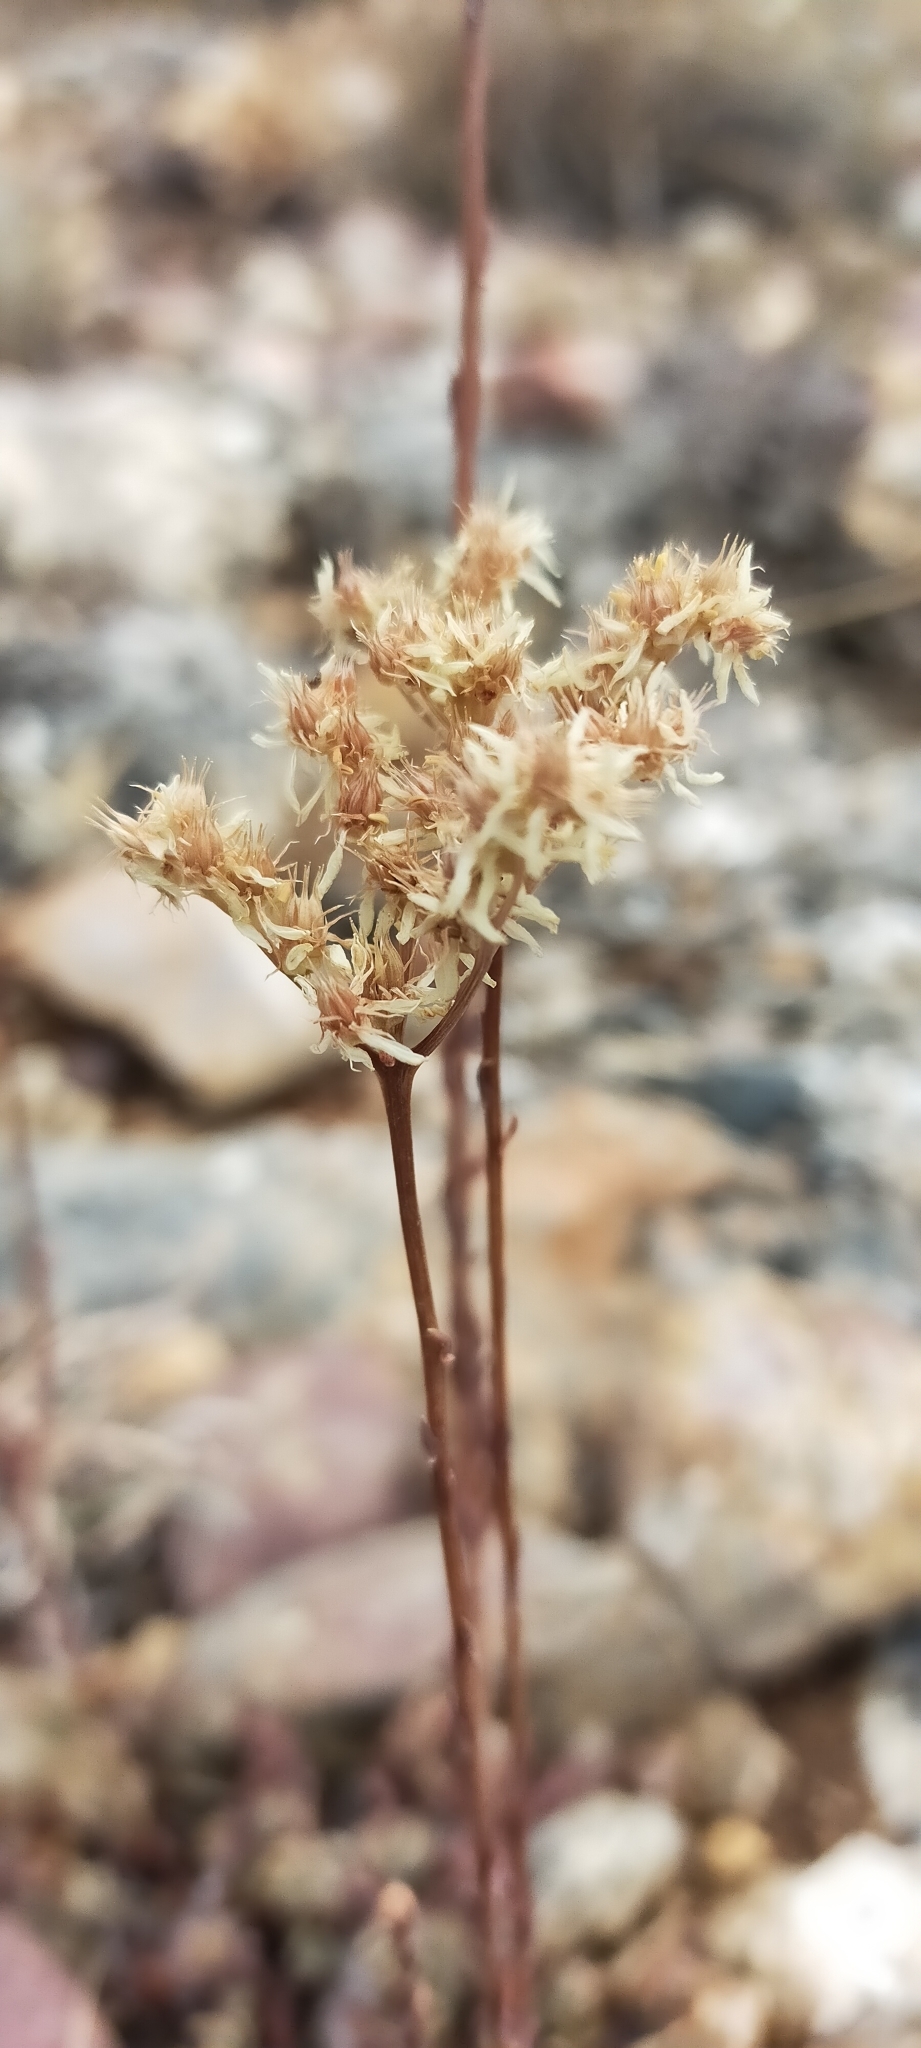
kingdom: Plantae
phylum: Tracheophyta
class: Magnoliopsida
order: Saxifragales
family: Crassulaceae
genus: Petrosedum
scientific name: Petrosedum sediforme
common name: Pale stonecrop
